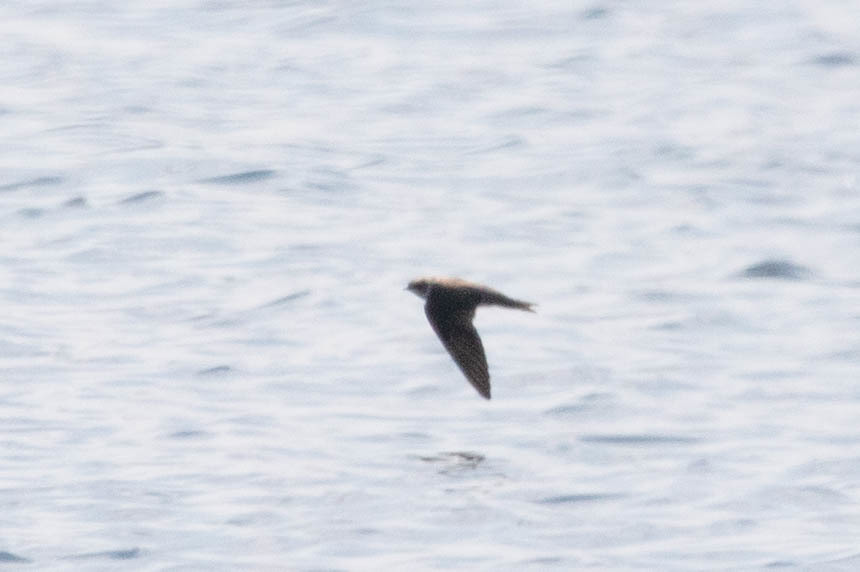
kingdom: Animalia
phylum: Chordata
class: Aves
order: Passeriformes
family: Hirundinidae
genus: Riparia
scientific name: Riparia riparia
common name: Sand martin
